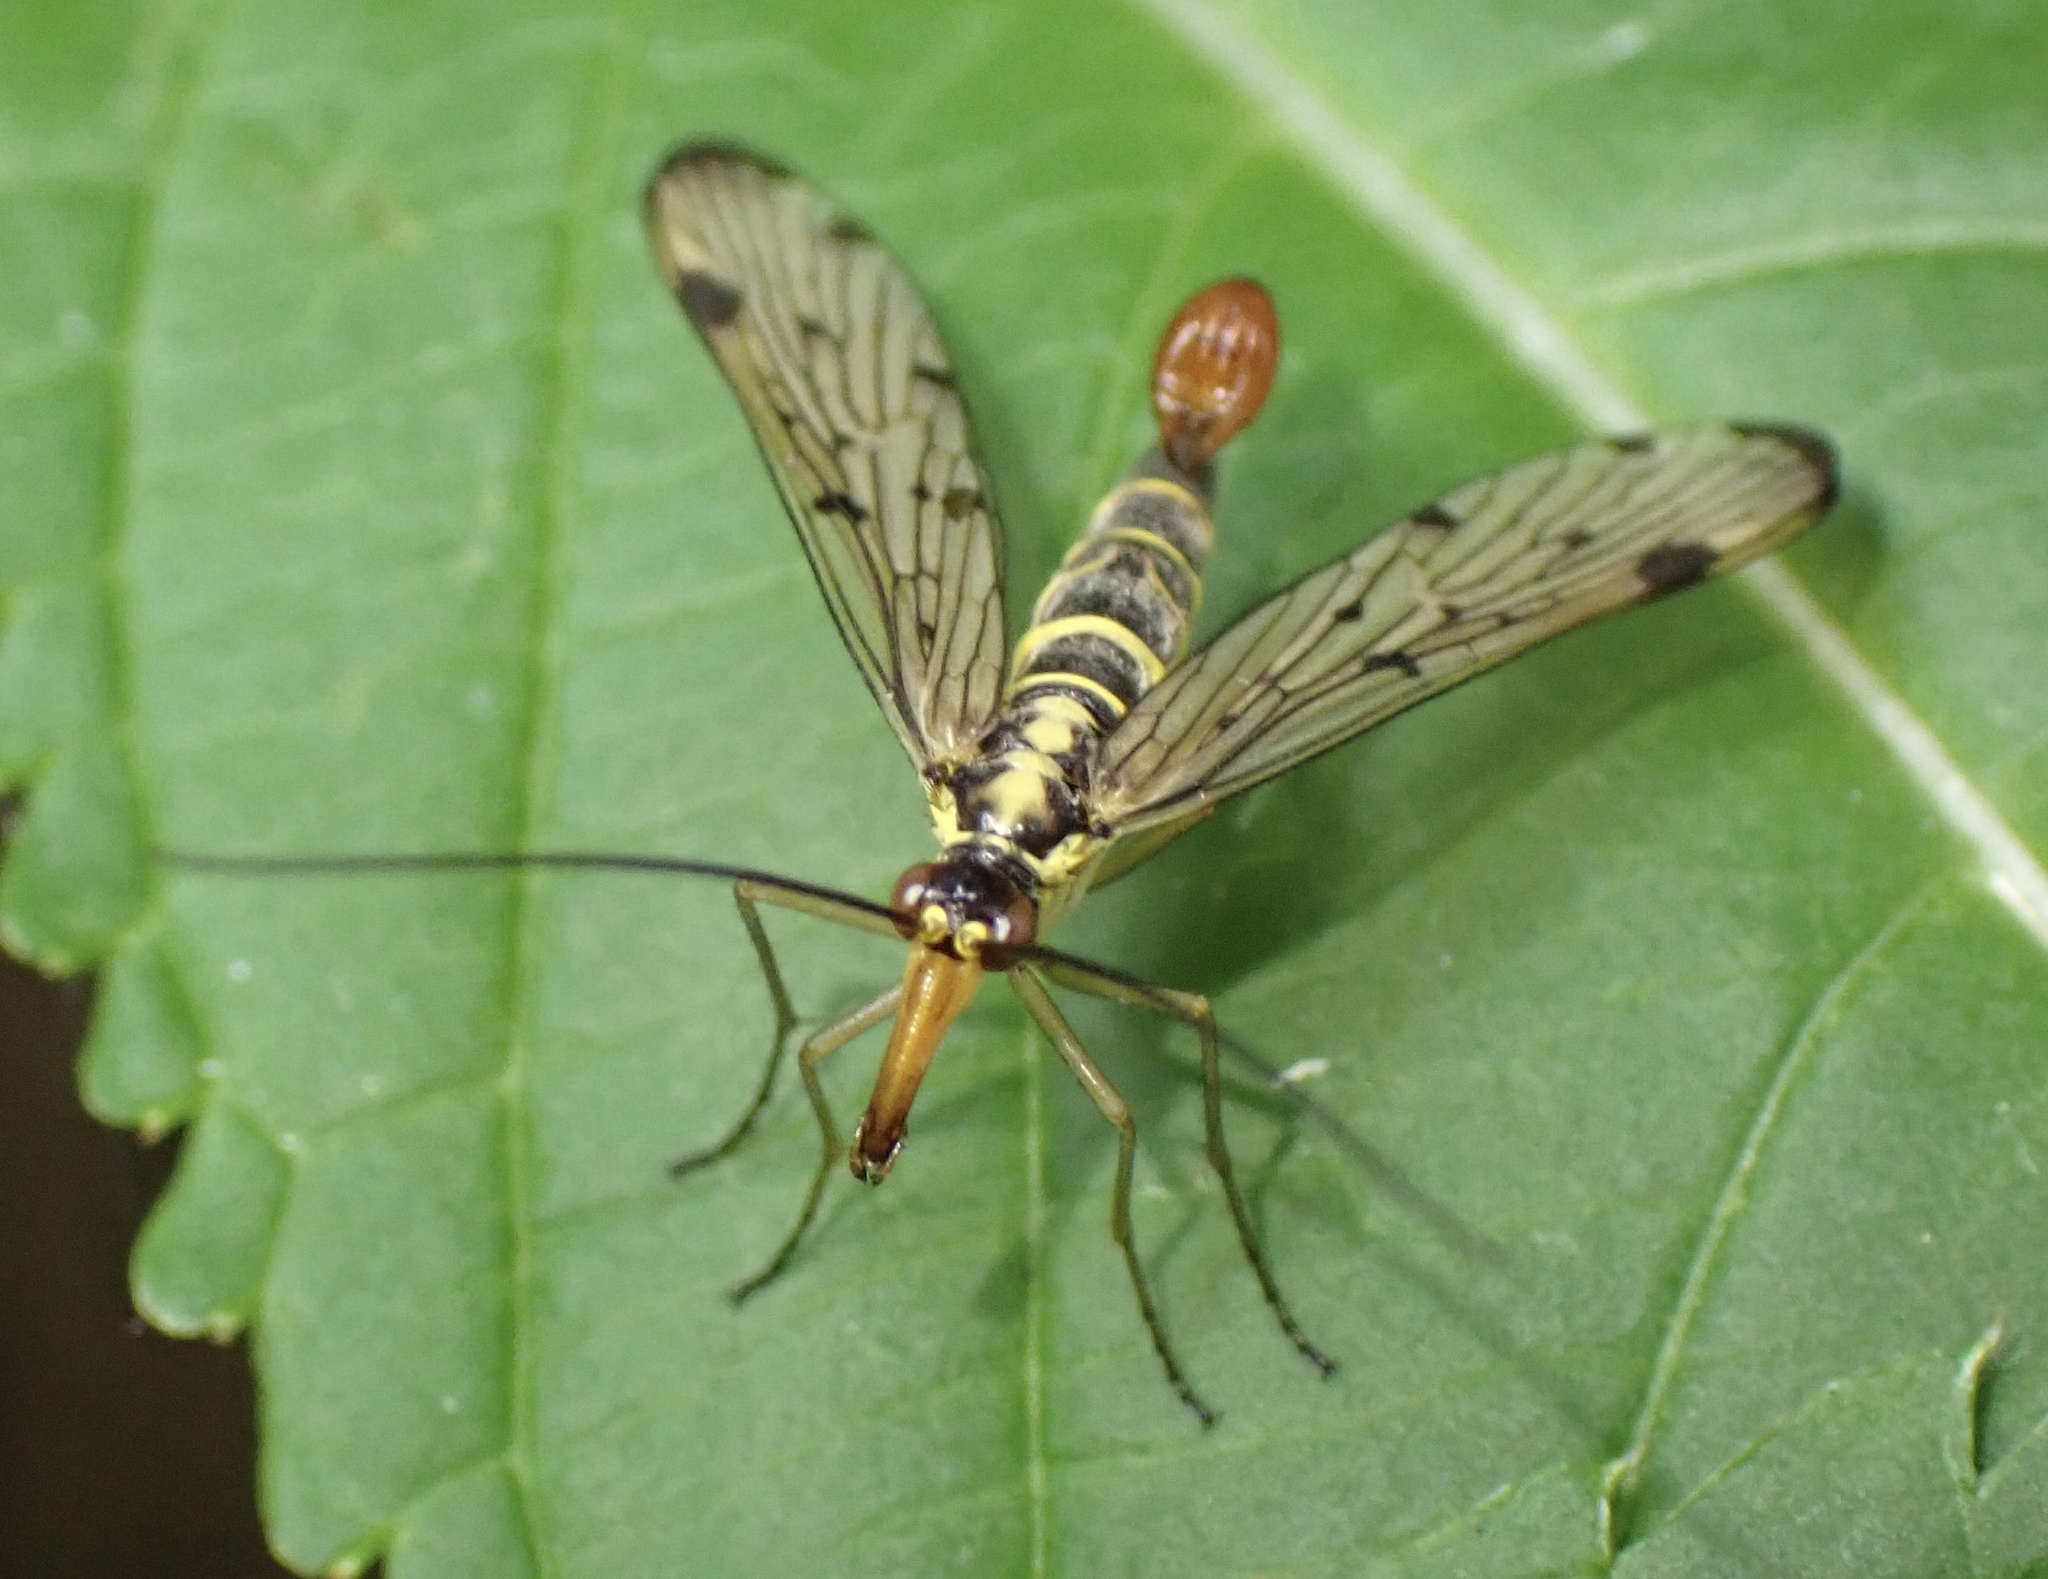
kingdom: Animalia
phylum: Arthropoda
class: Insecta
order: Mecoptera
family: Panorpidae
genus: Panorpa
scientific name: Panorpa germanica
